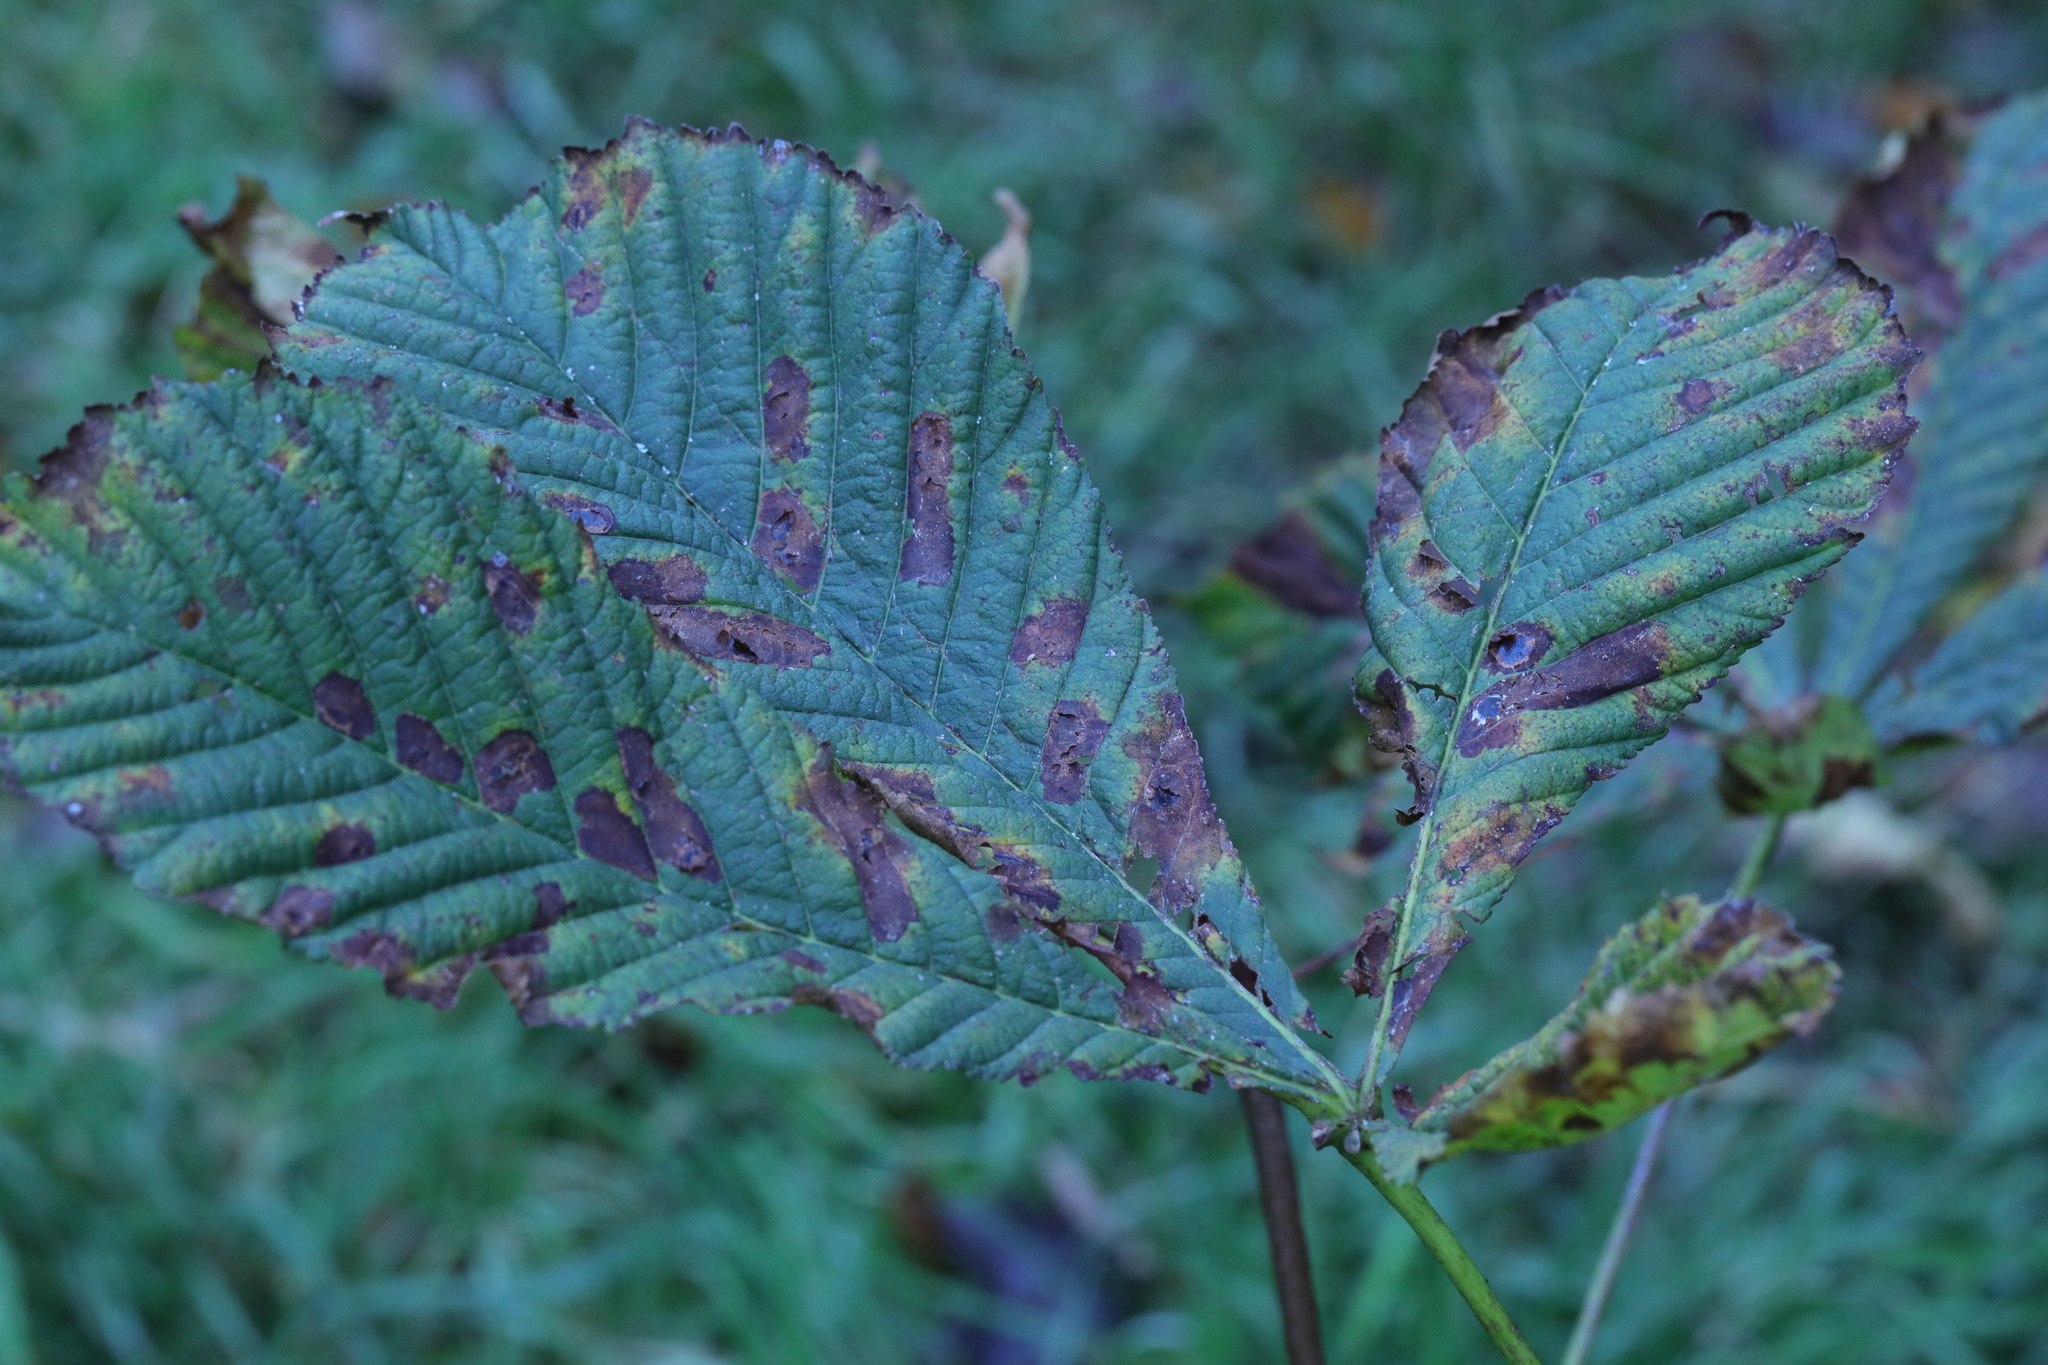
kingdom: Animalia
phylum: Arthropoda
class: Insecta
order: Lepidoptera
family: Gracillariidae
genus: Cameraria
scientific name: Cameraria ohridella
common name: Horse-chestnut leaf-miner
